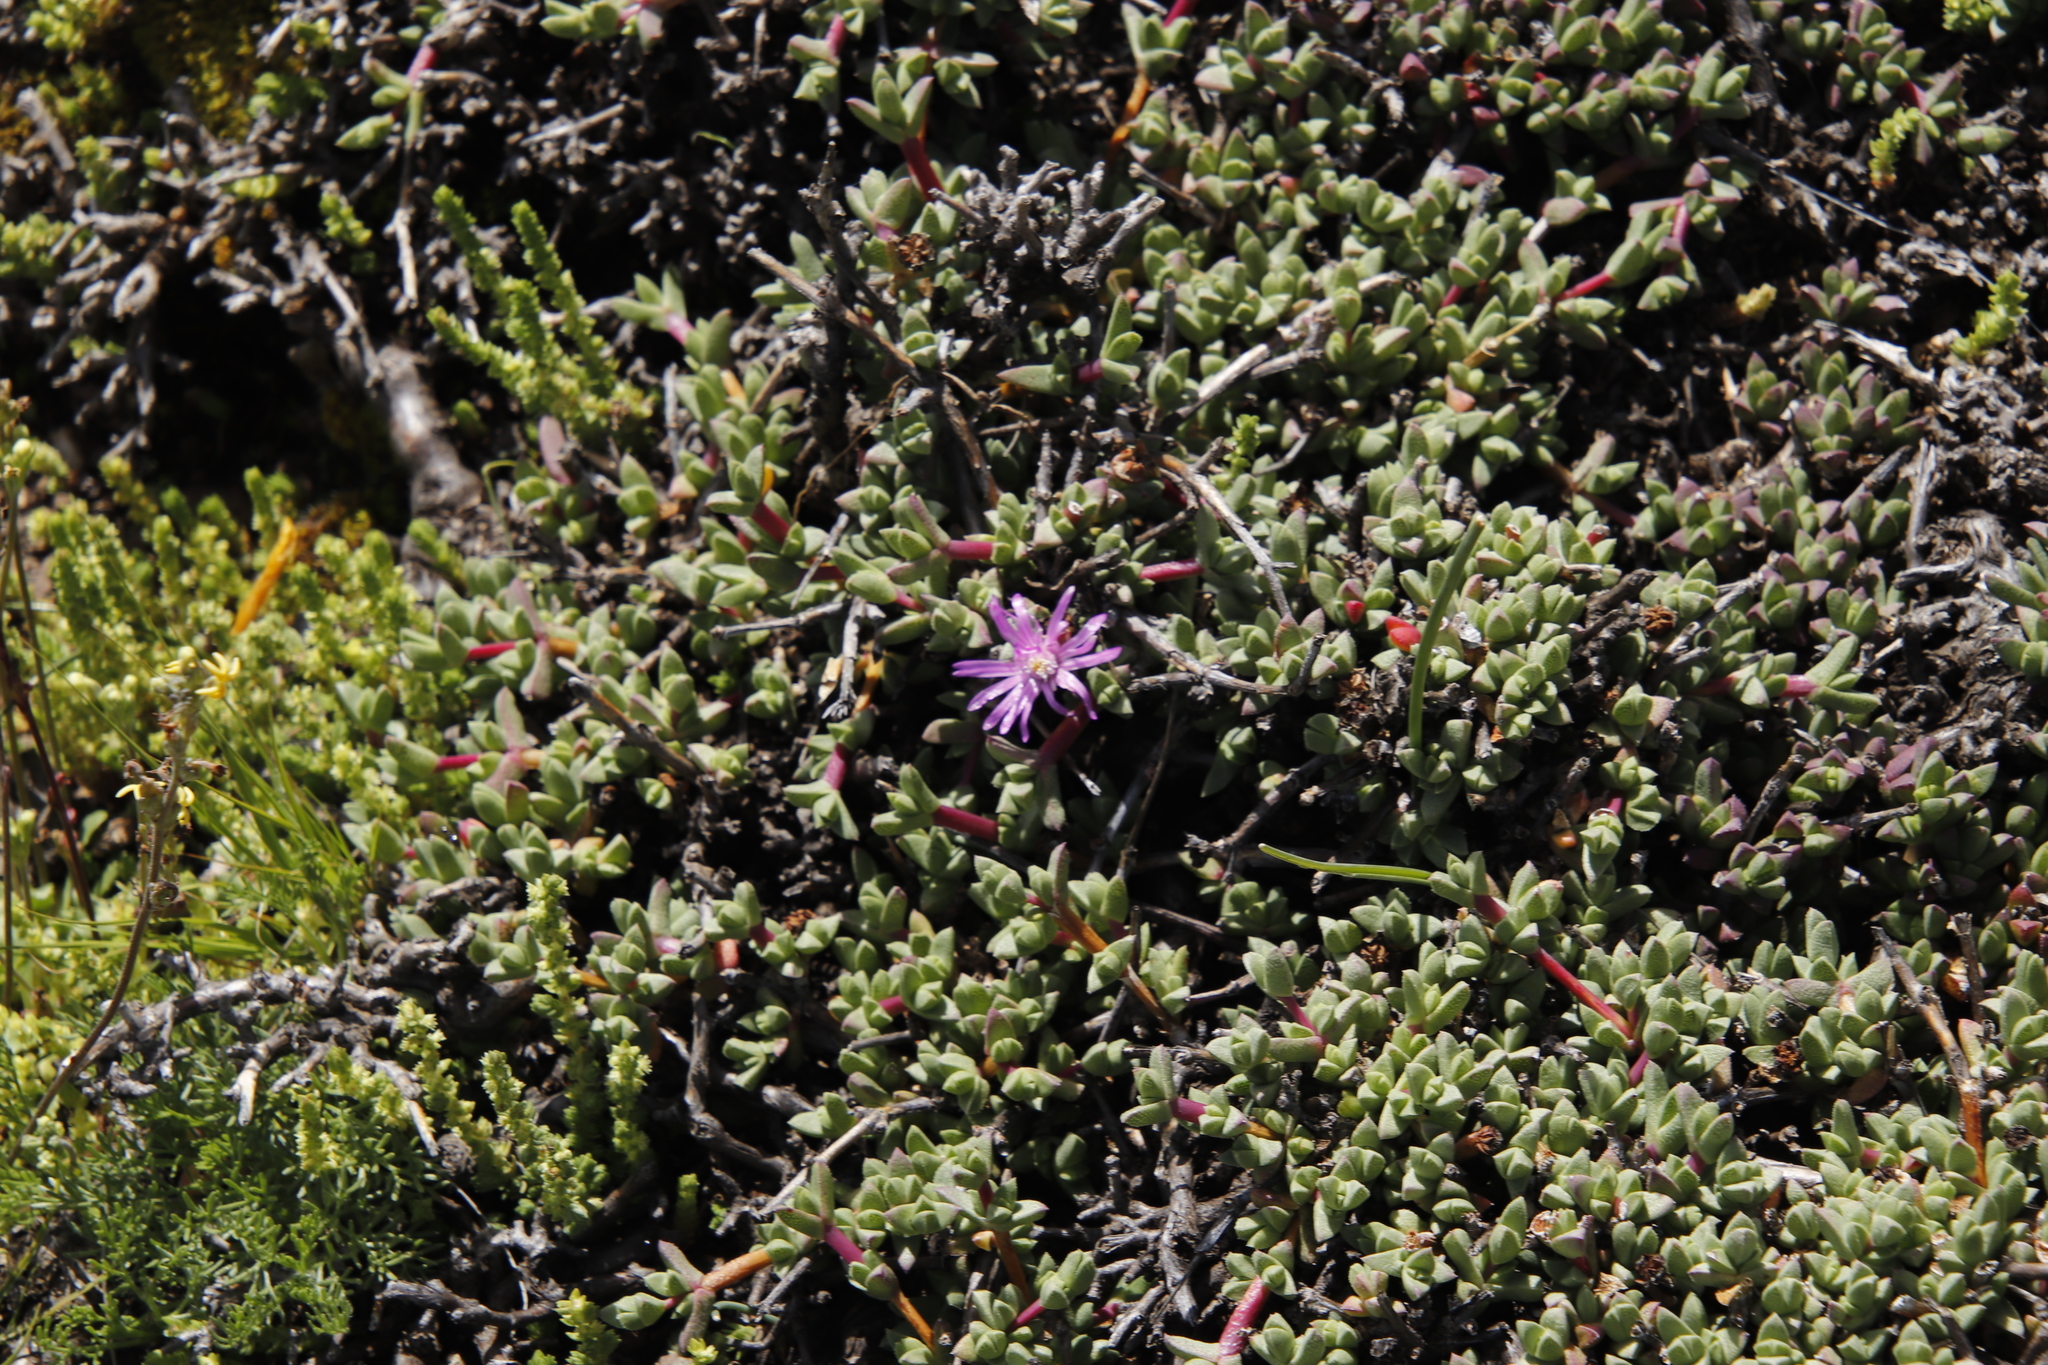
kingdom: Plantae
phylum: Tracheophyta
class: Magnoliopsida
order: Caryophyllales
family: Aizoaceae
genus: Ruschia
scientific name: Ruschia putterillii
